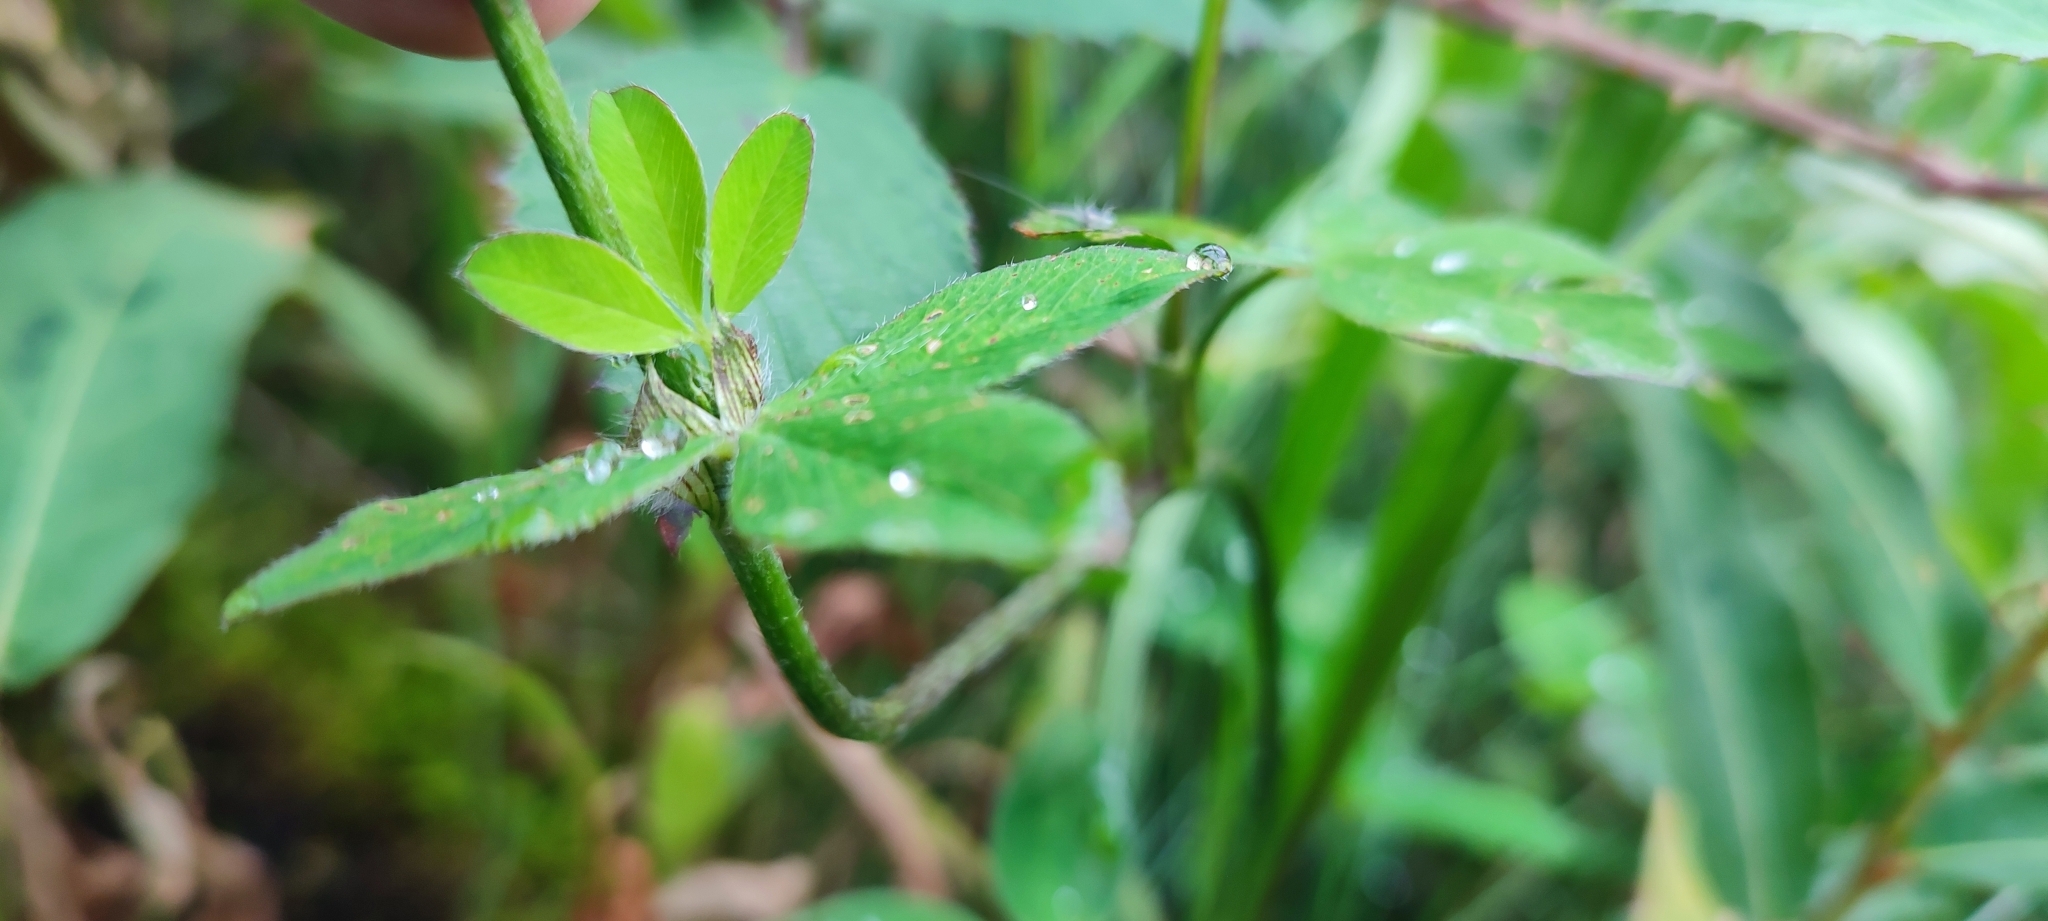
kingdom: Plantae
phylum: Tracheophyta
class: Magnoliopsida
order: Fabales
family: Fabaceae
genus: Trifolium
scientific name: Trifolium pratense
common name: Red clover
